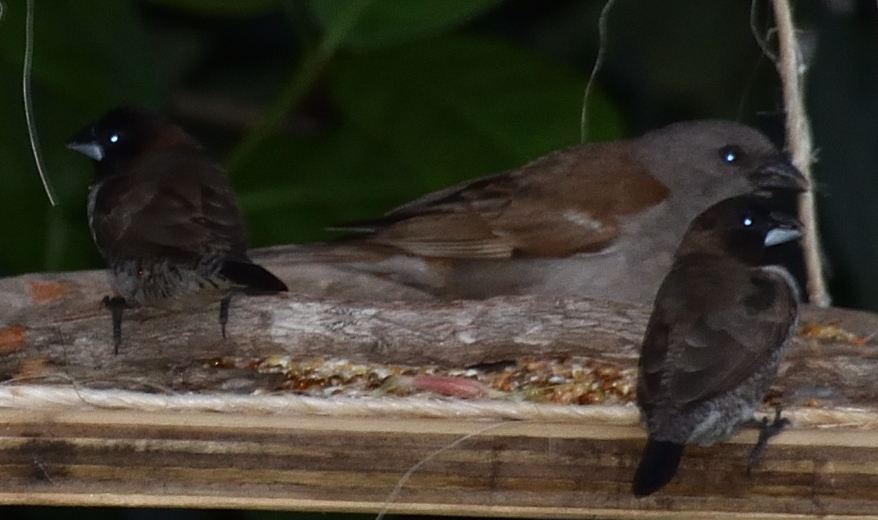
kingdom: Animalia
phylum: Chordata
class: Aves
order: Passeriformes
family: Estrildidae
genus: Lonchura
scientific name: Lonchura cucullata
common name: Bronze mannikin
